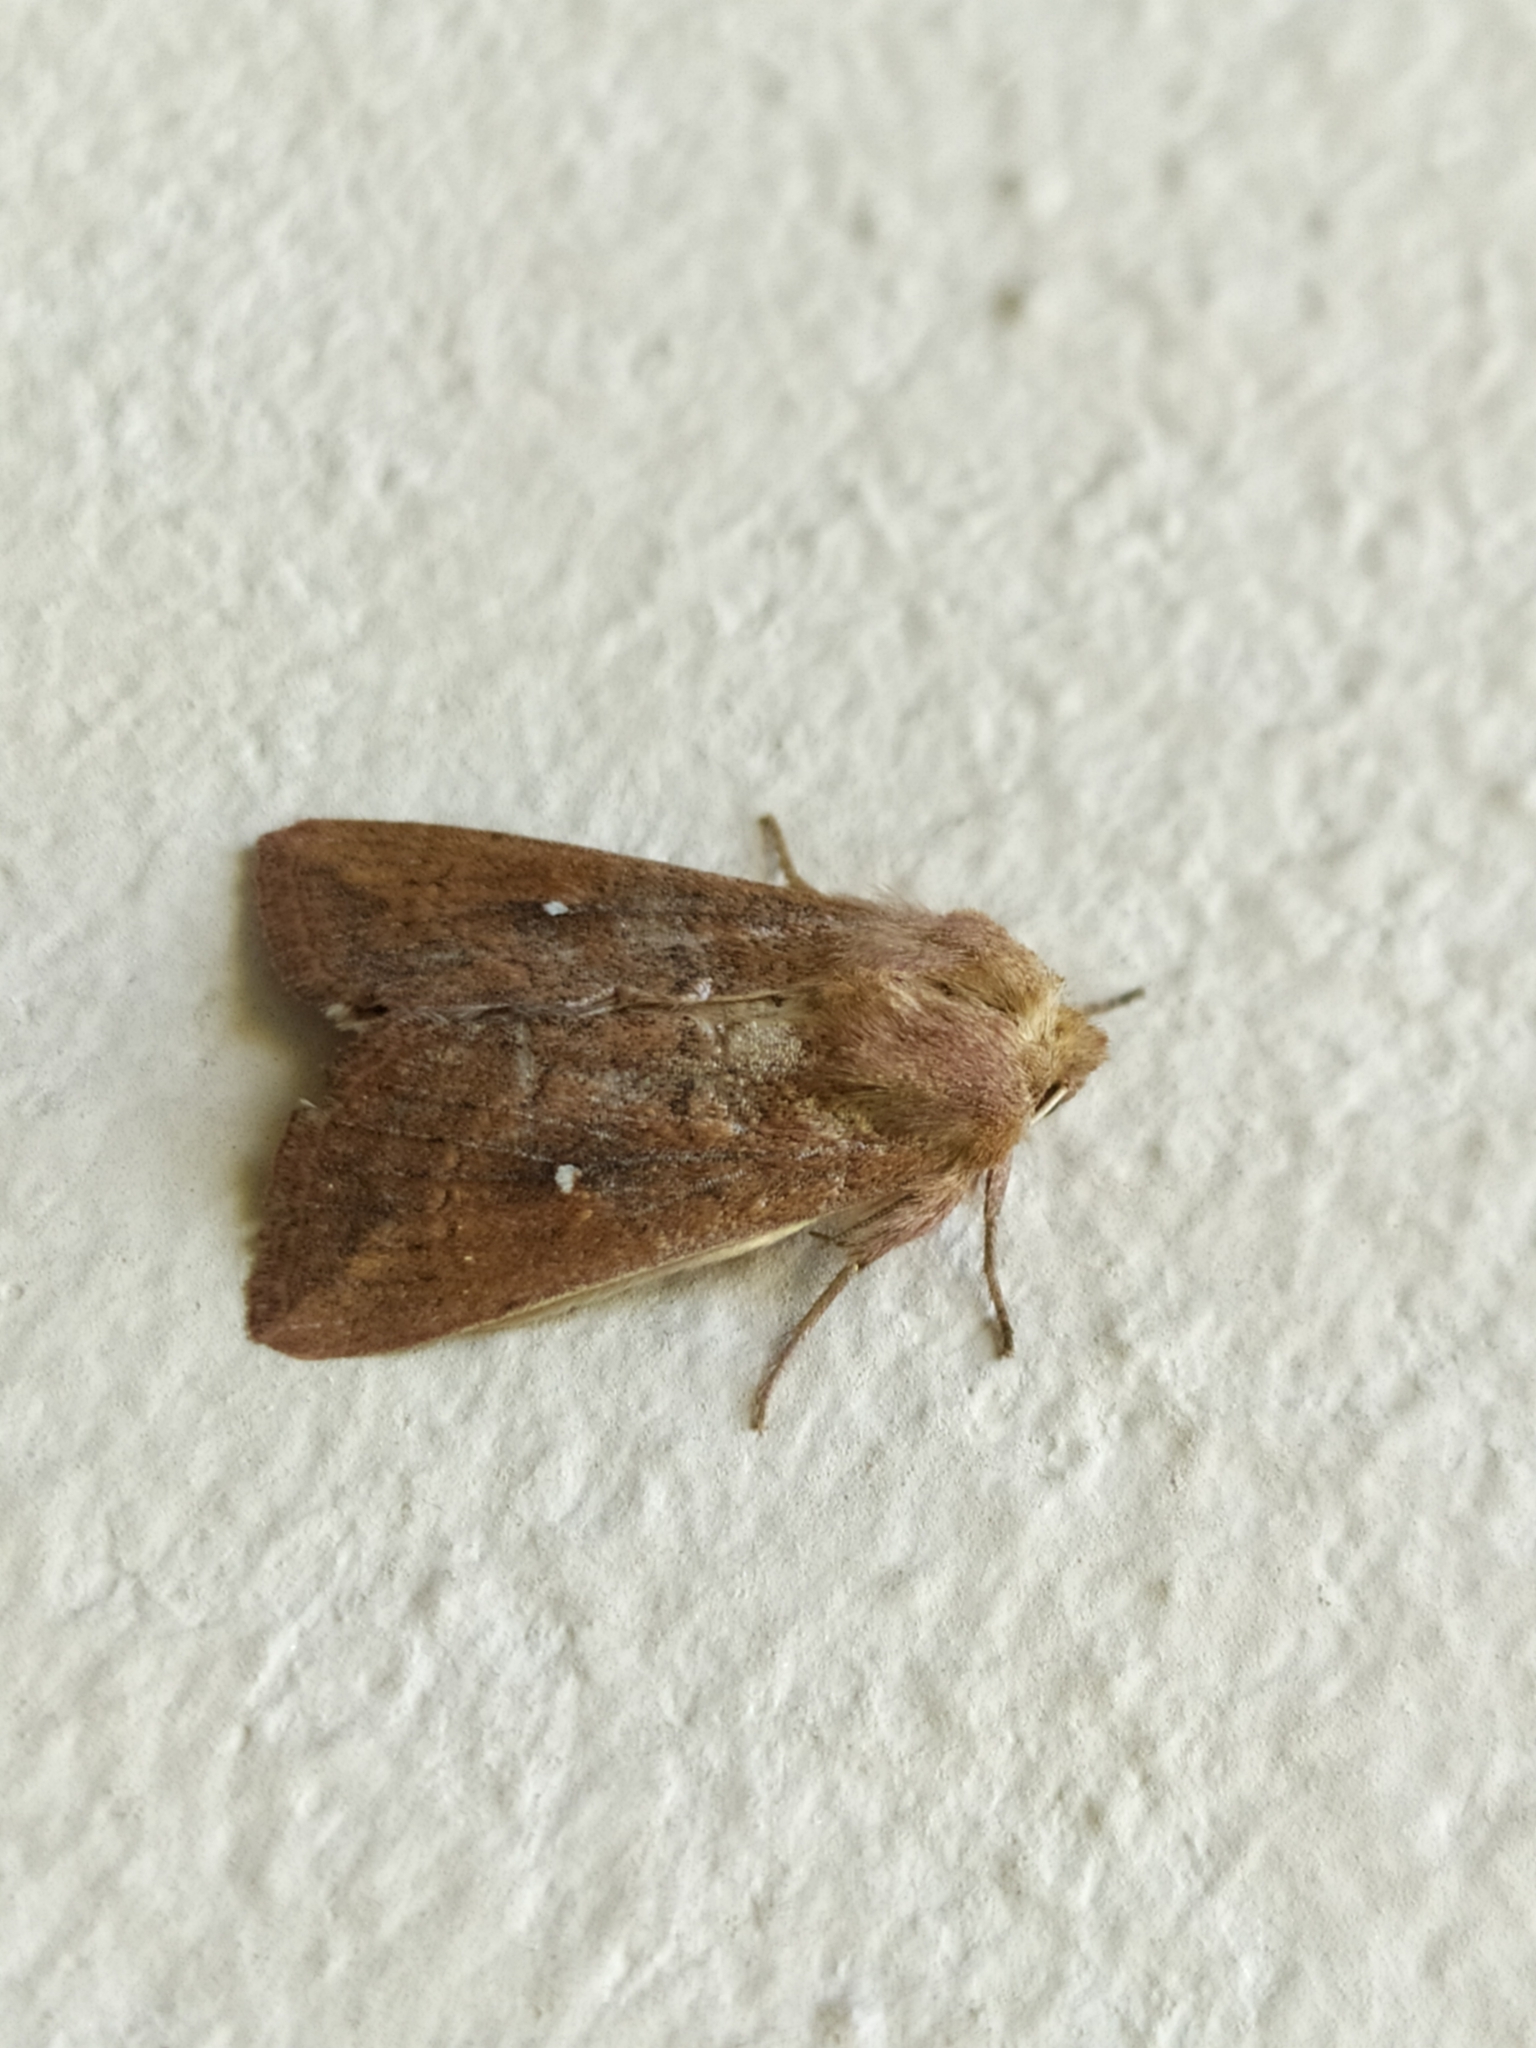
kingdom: Animalia
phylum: Arthropoda
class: Insecta
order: Lepidoptera
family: Noctuidae
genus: Mythimna
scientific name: Mythimna albipuncta
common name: White-point
